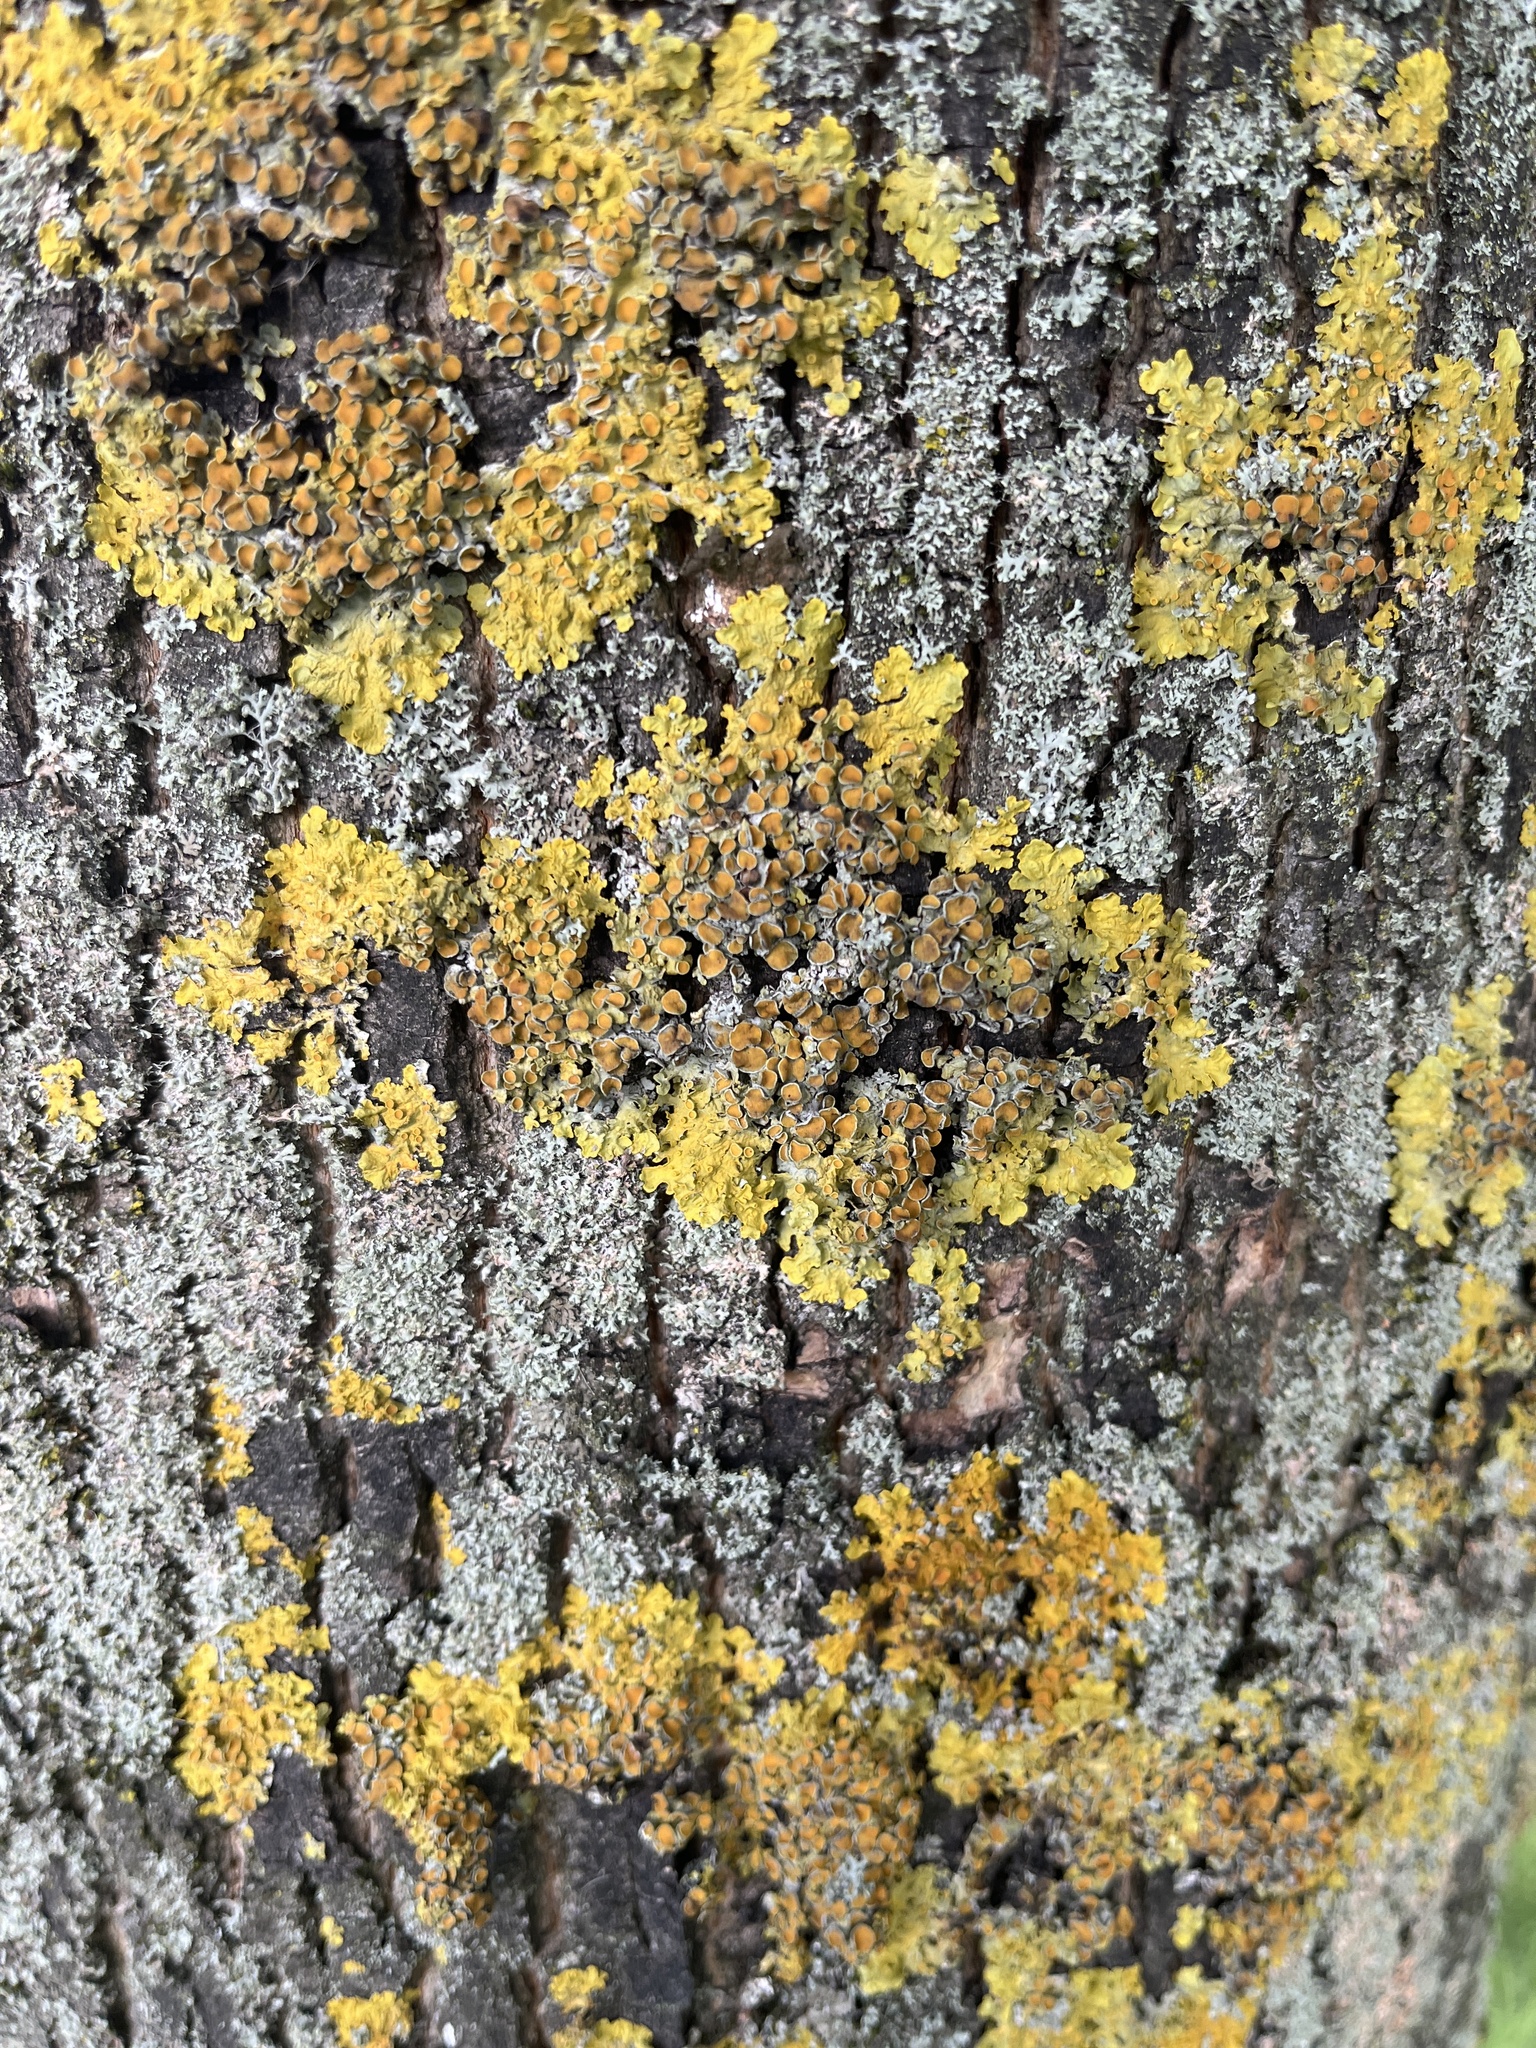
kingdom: Fungi
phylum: Ascomycota
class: Lecanoromycetes
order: Teloschistales
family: Teloschistaceae
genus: Xanthoria
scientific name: Xanthoria parietina
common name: Common orange lichen
